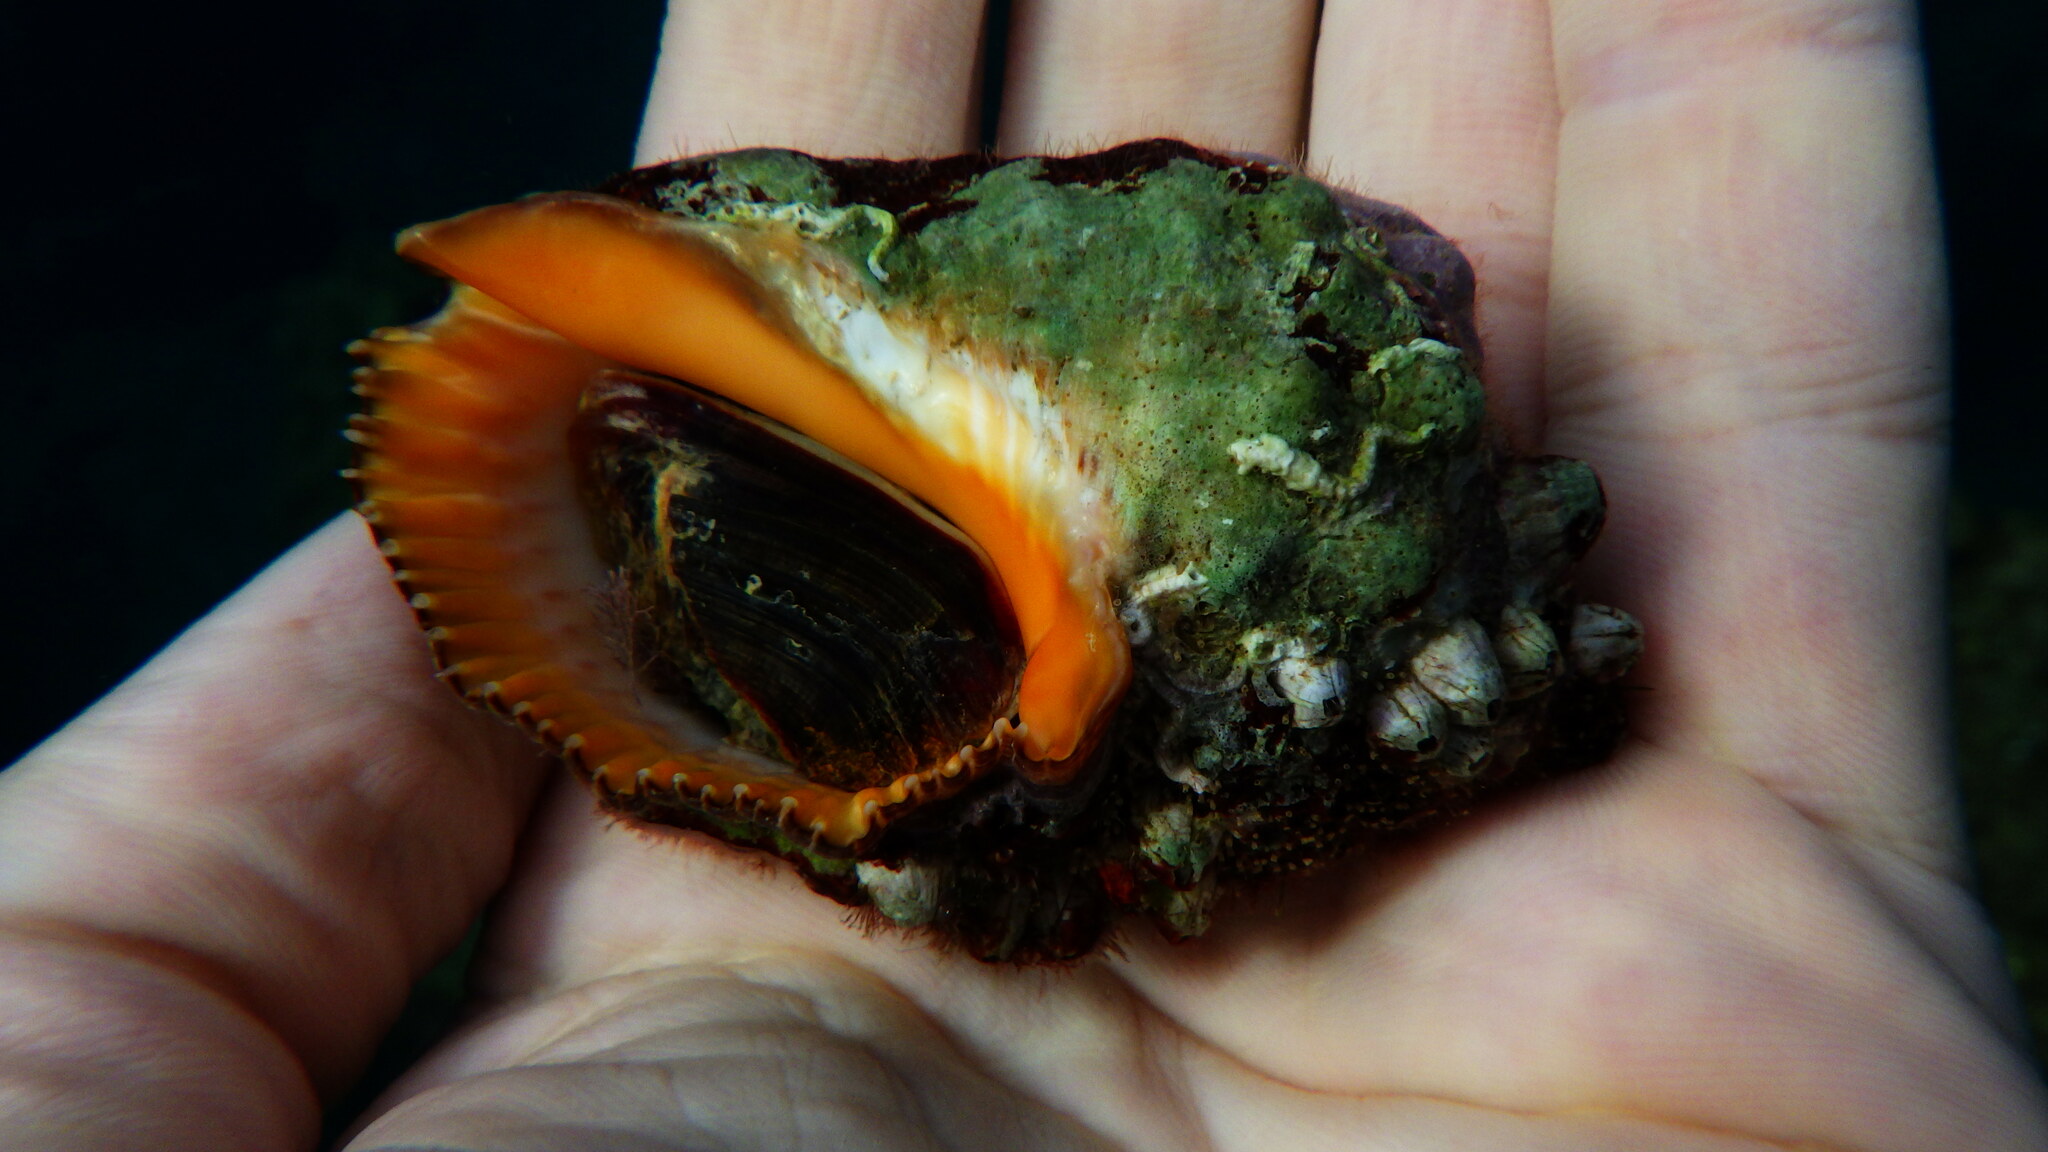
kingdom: Animalia
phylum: Mollusca
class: Gastropoda
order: Neogastropoda
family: Muricidae
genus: Stramonita
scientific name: Stramonita haemastoma
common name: Florida dog winkle
